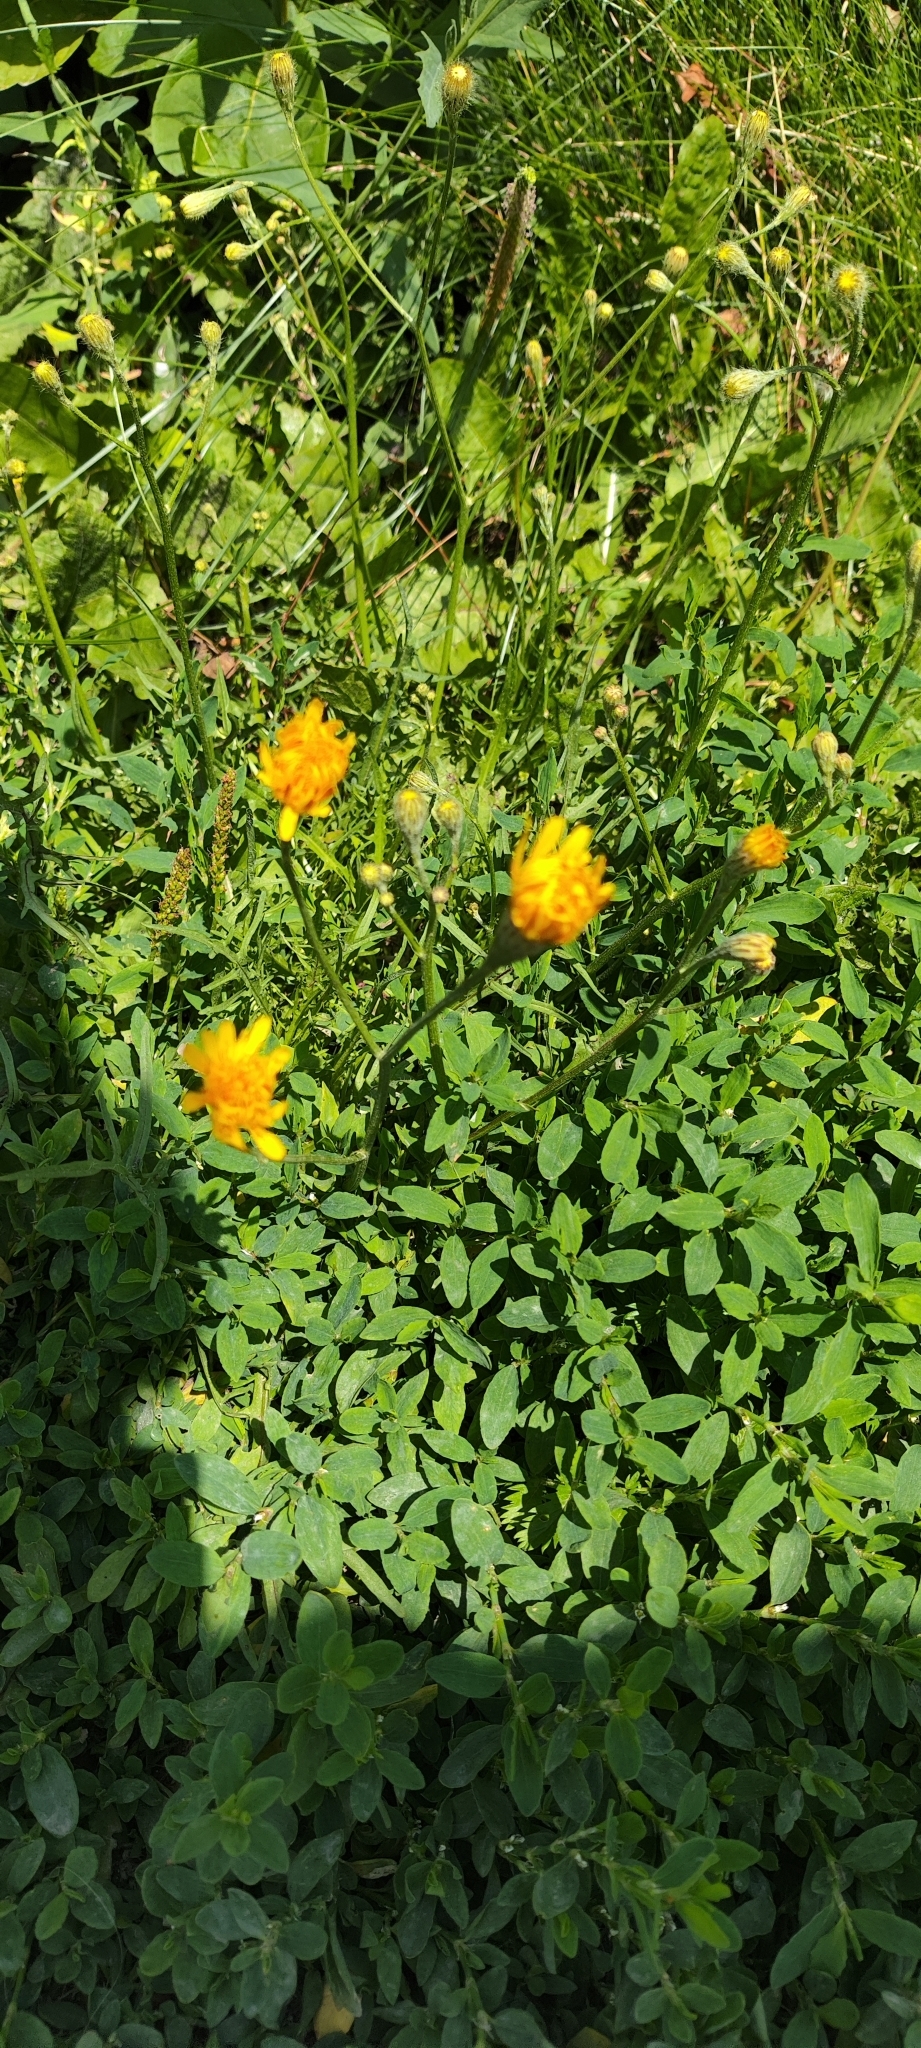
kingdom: Plantae
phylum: Tracheophyta
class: Magnoliopsida
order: Asterales
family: Asteraceae
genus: Scorzoneroides
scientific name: Scorzoneroides autumnalis
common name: Autumn hawkbit
